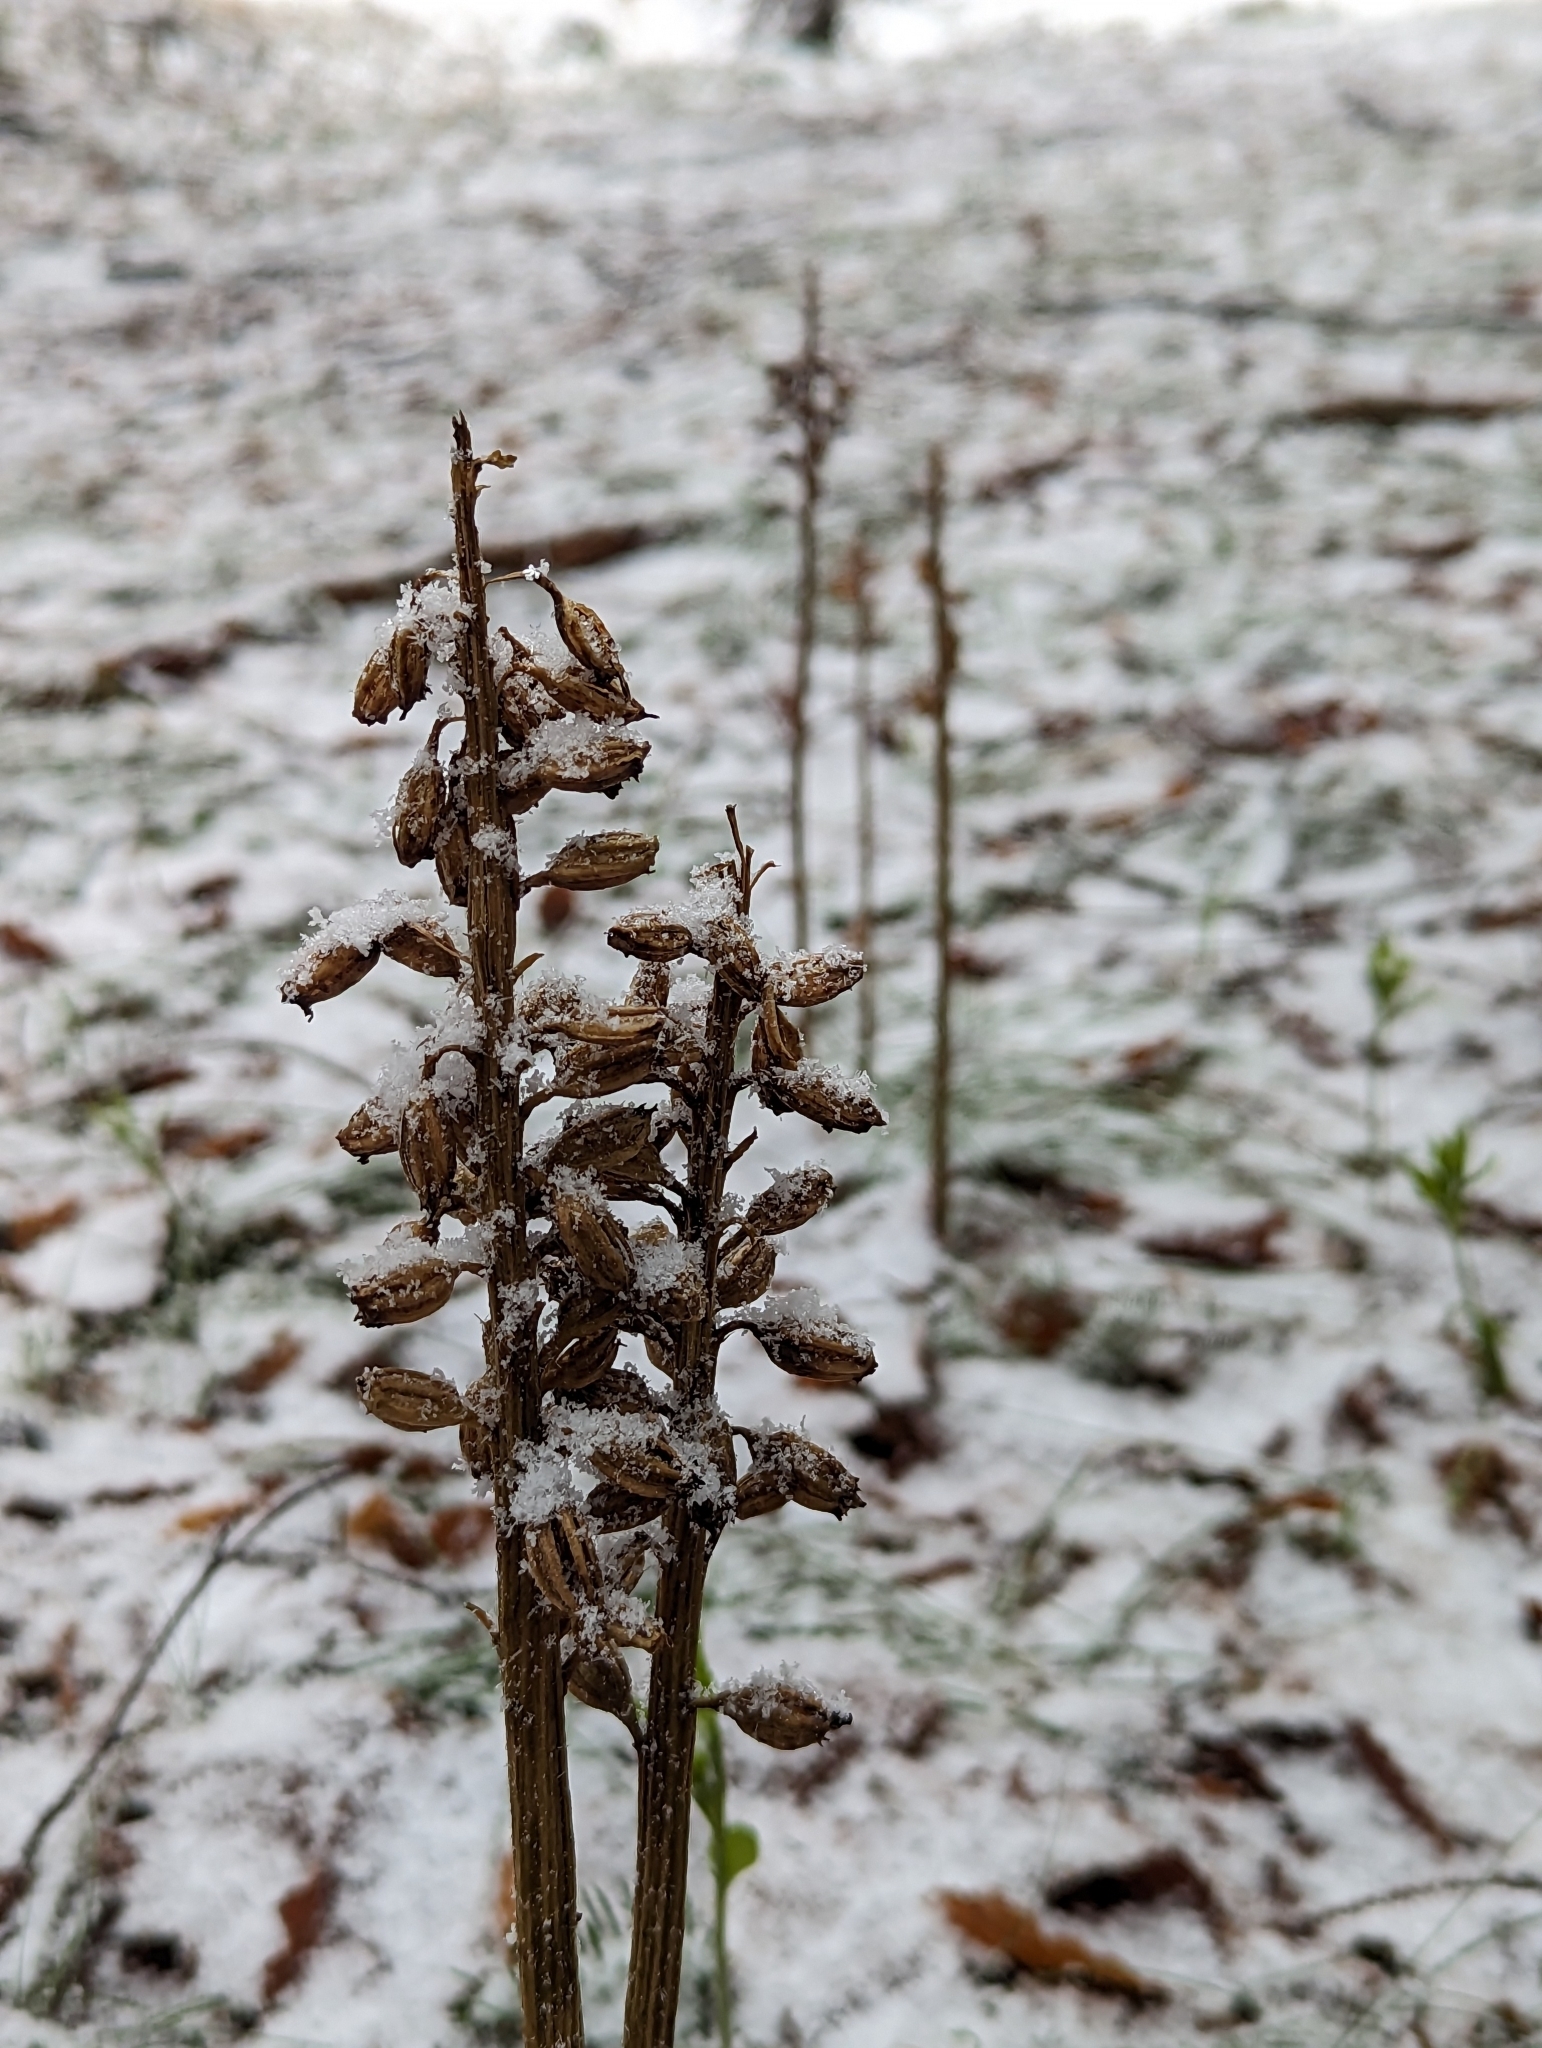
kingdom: Plantae
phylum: Tracheophyta
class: Liliopsida
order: Asparagales
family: Orchidaceae
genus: Neottia
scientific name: Neottia nidus-avis
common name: Bird's-nest orchid
